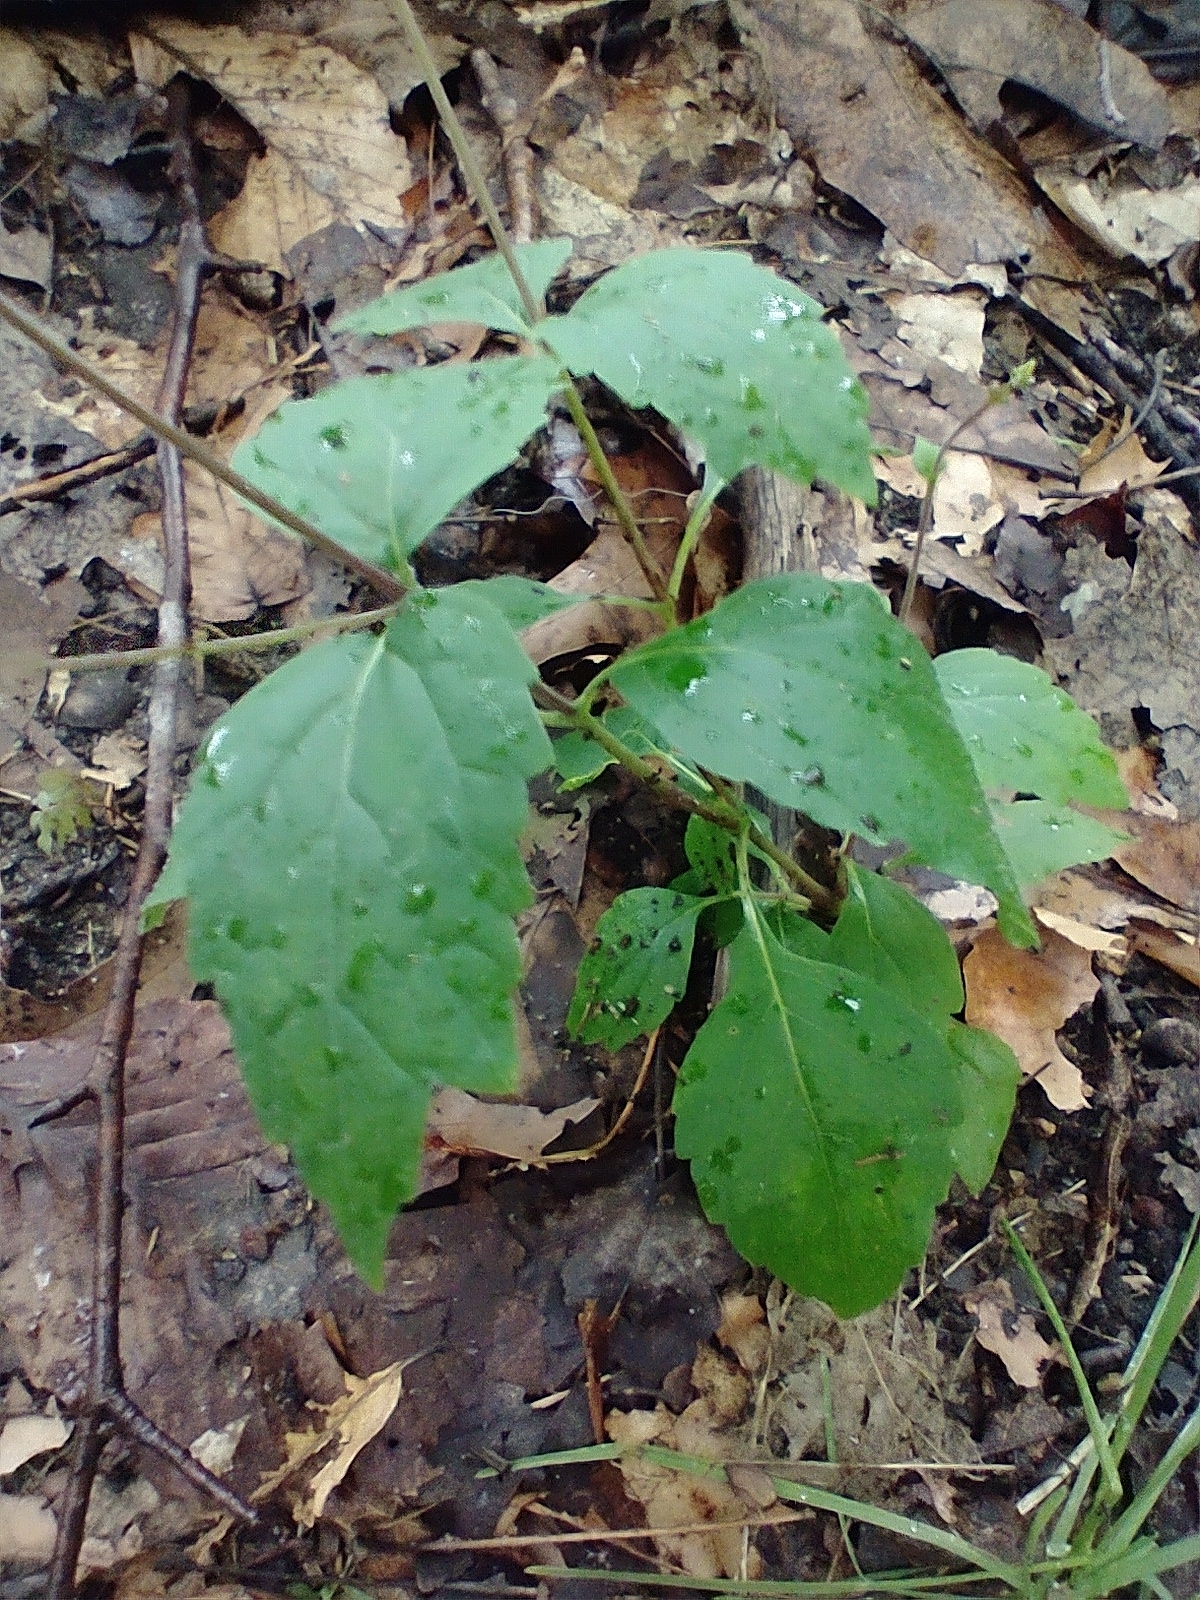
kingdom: Plantae
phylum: Tracheophyta
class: Magnoliopsida
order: Lamiales
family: Phrymaceae
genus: Phryma
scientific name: Phryma leptostachya
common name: American lopseed
